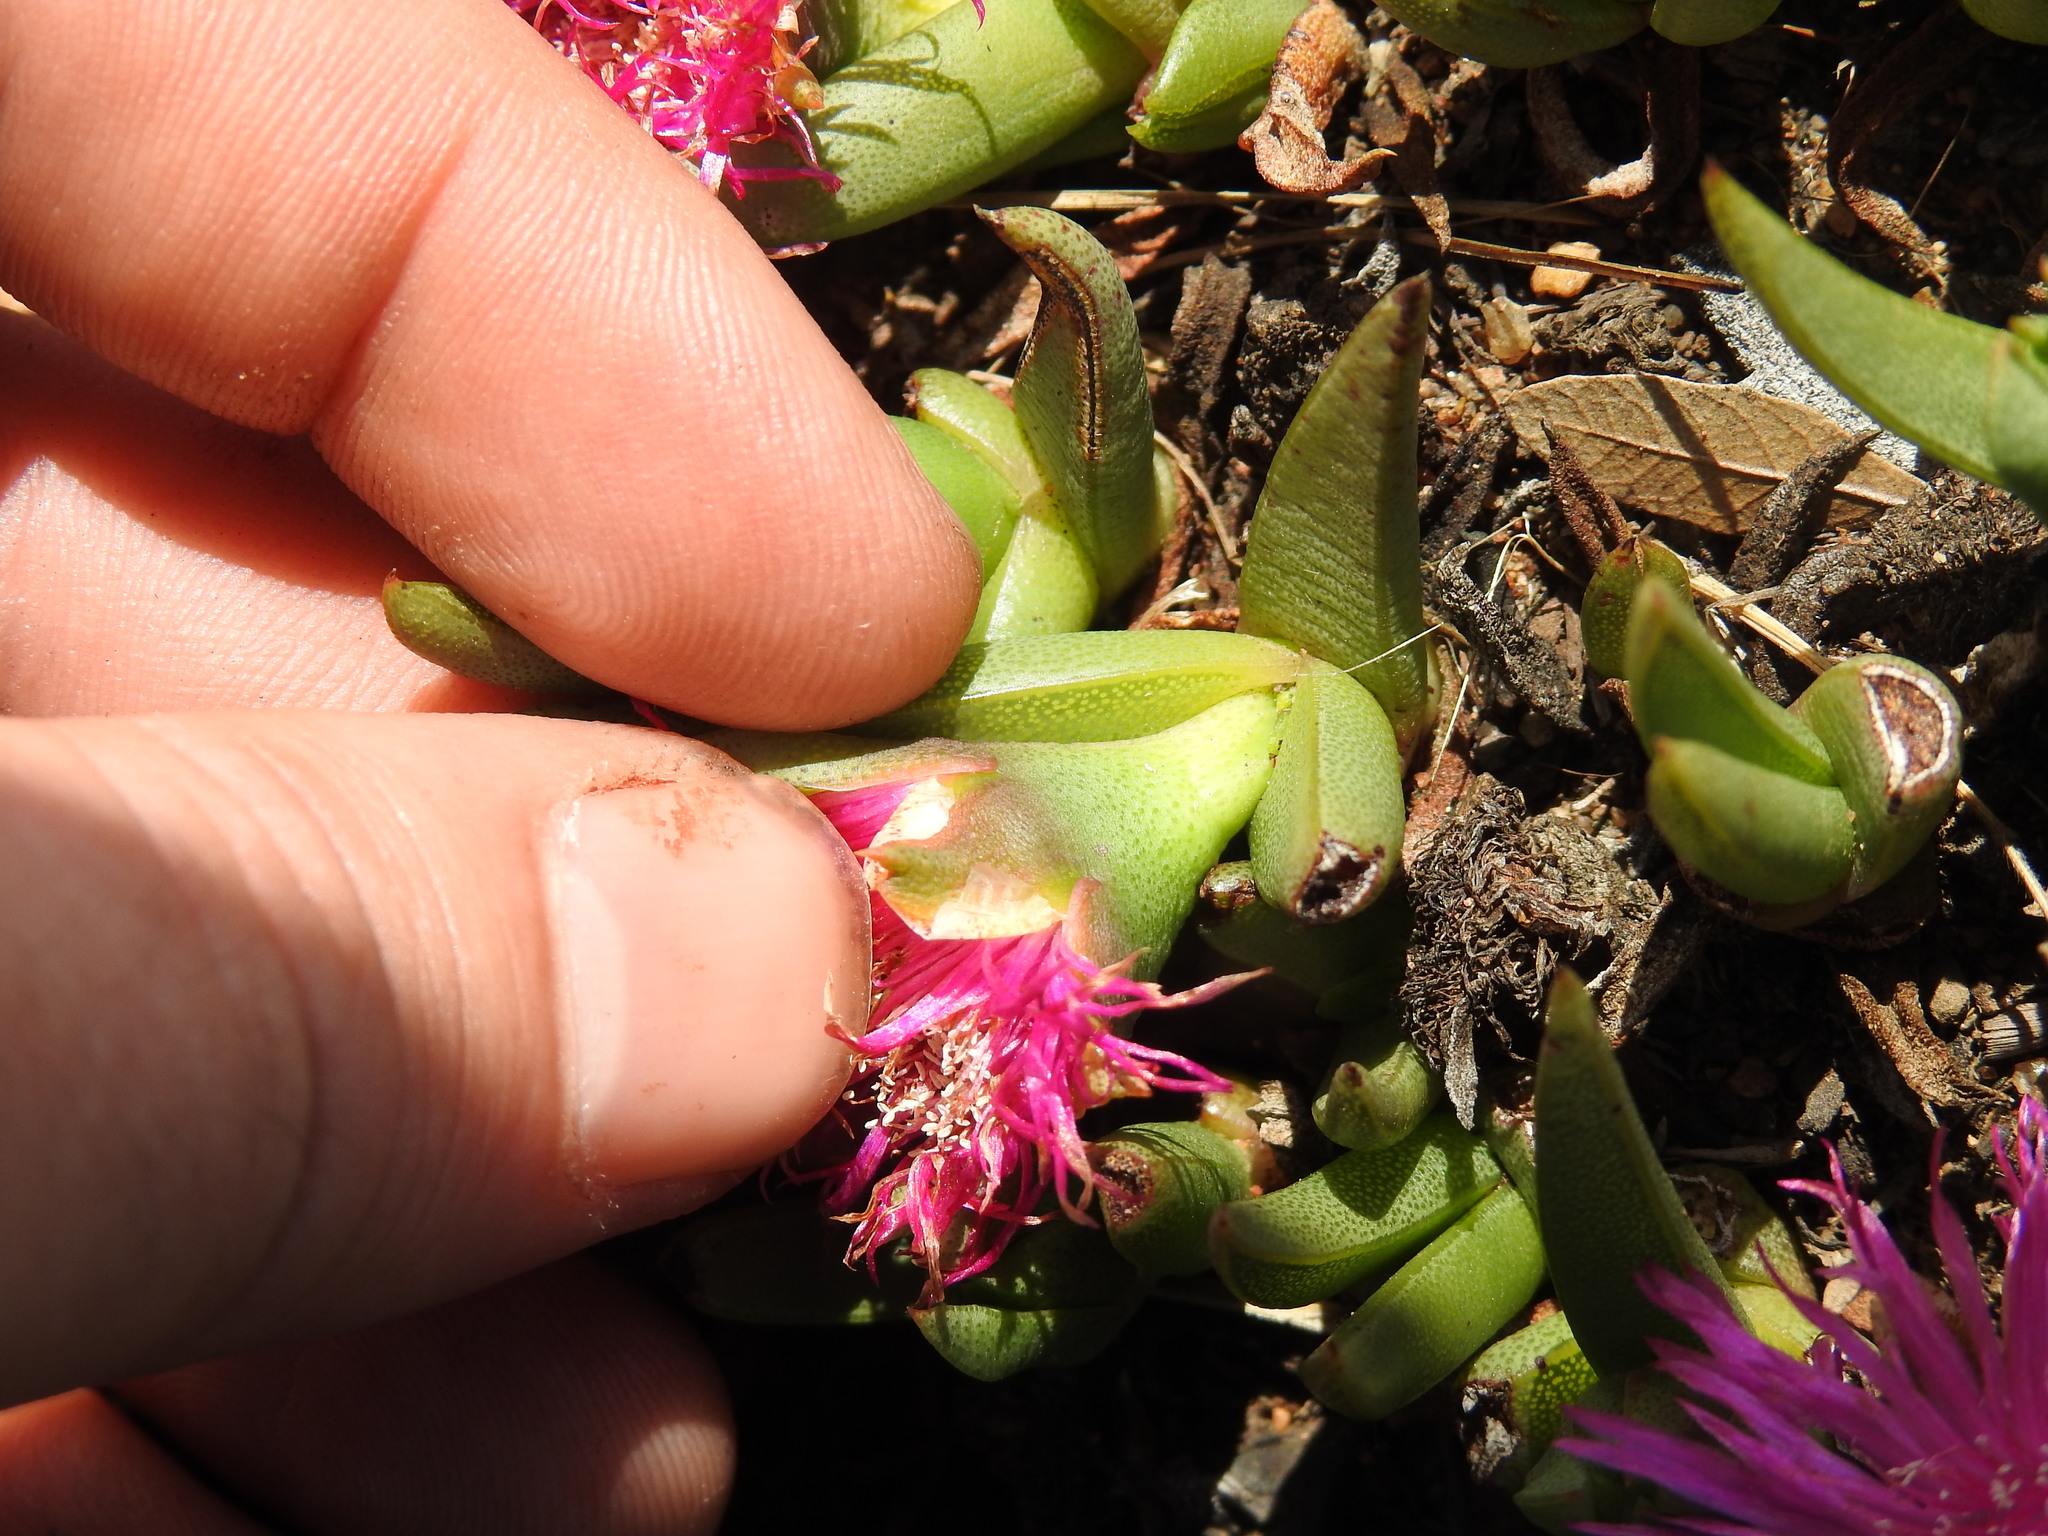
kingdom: Plantae
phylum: Tracheophyta
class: Magnoliopsida
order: Caryophyllales
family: Aizoaceae
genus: Khadia
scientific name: Khadia acutipetala
